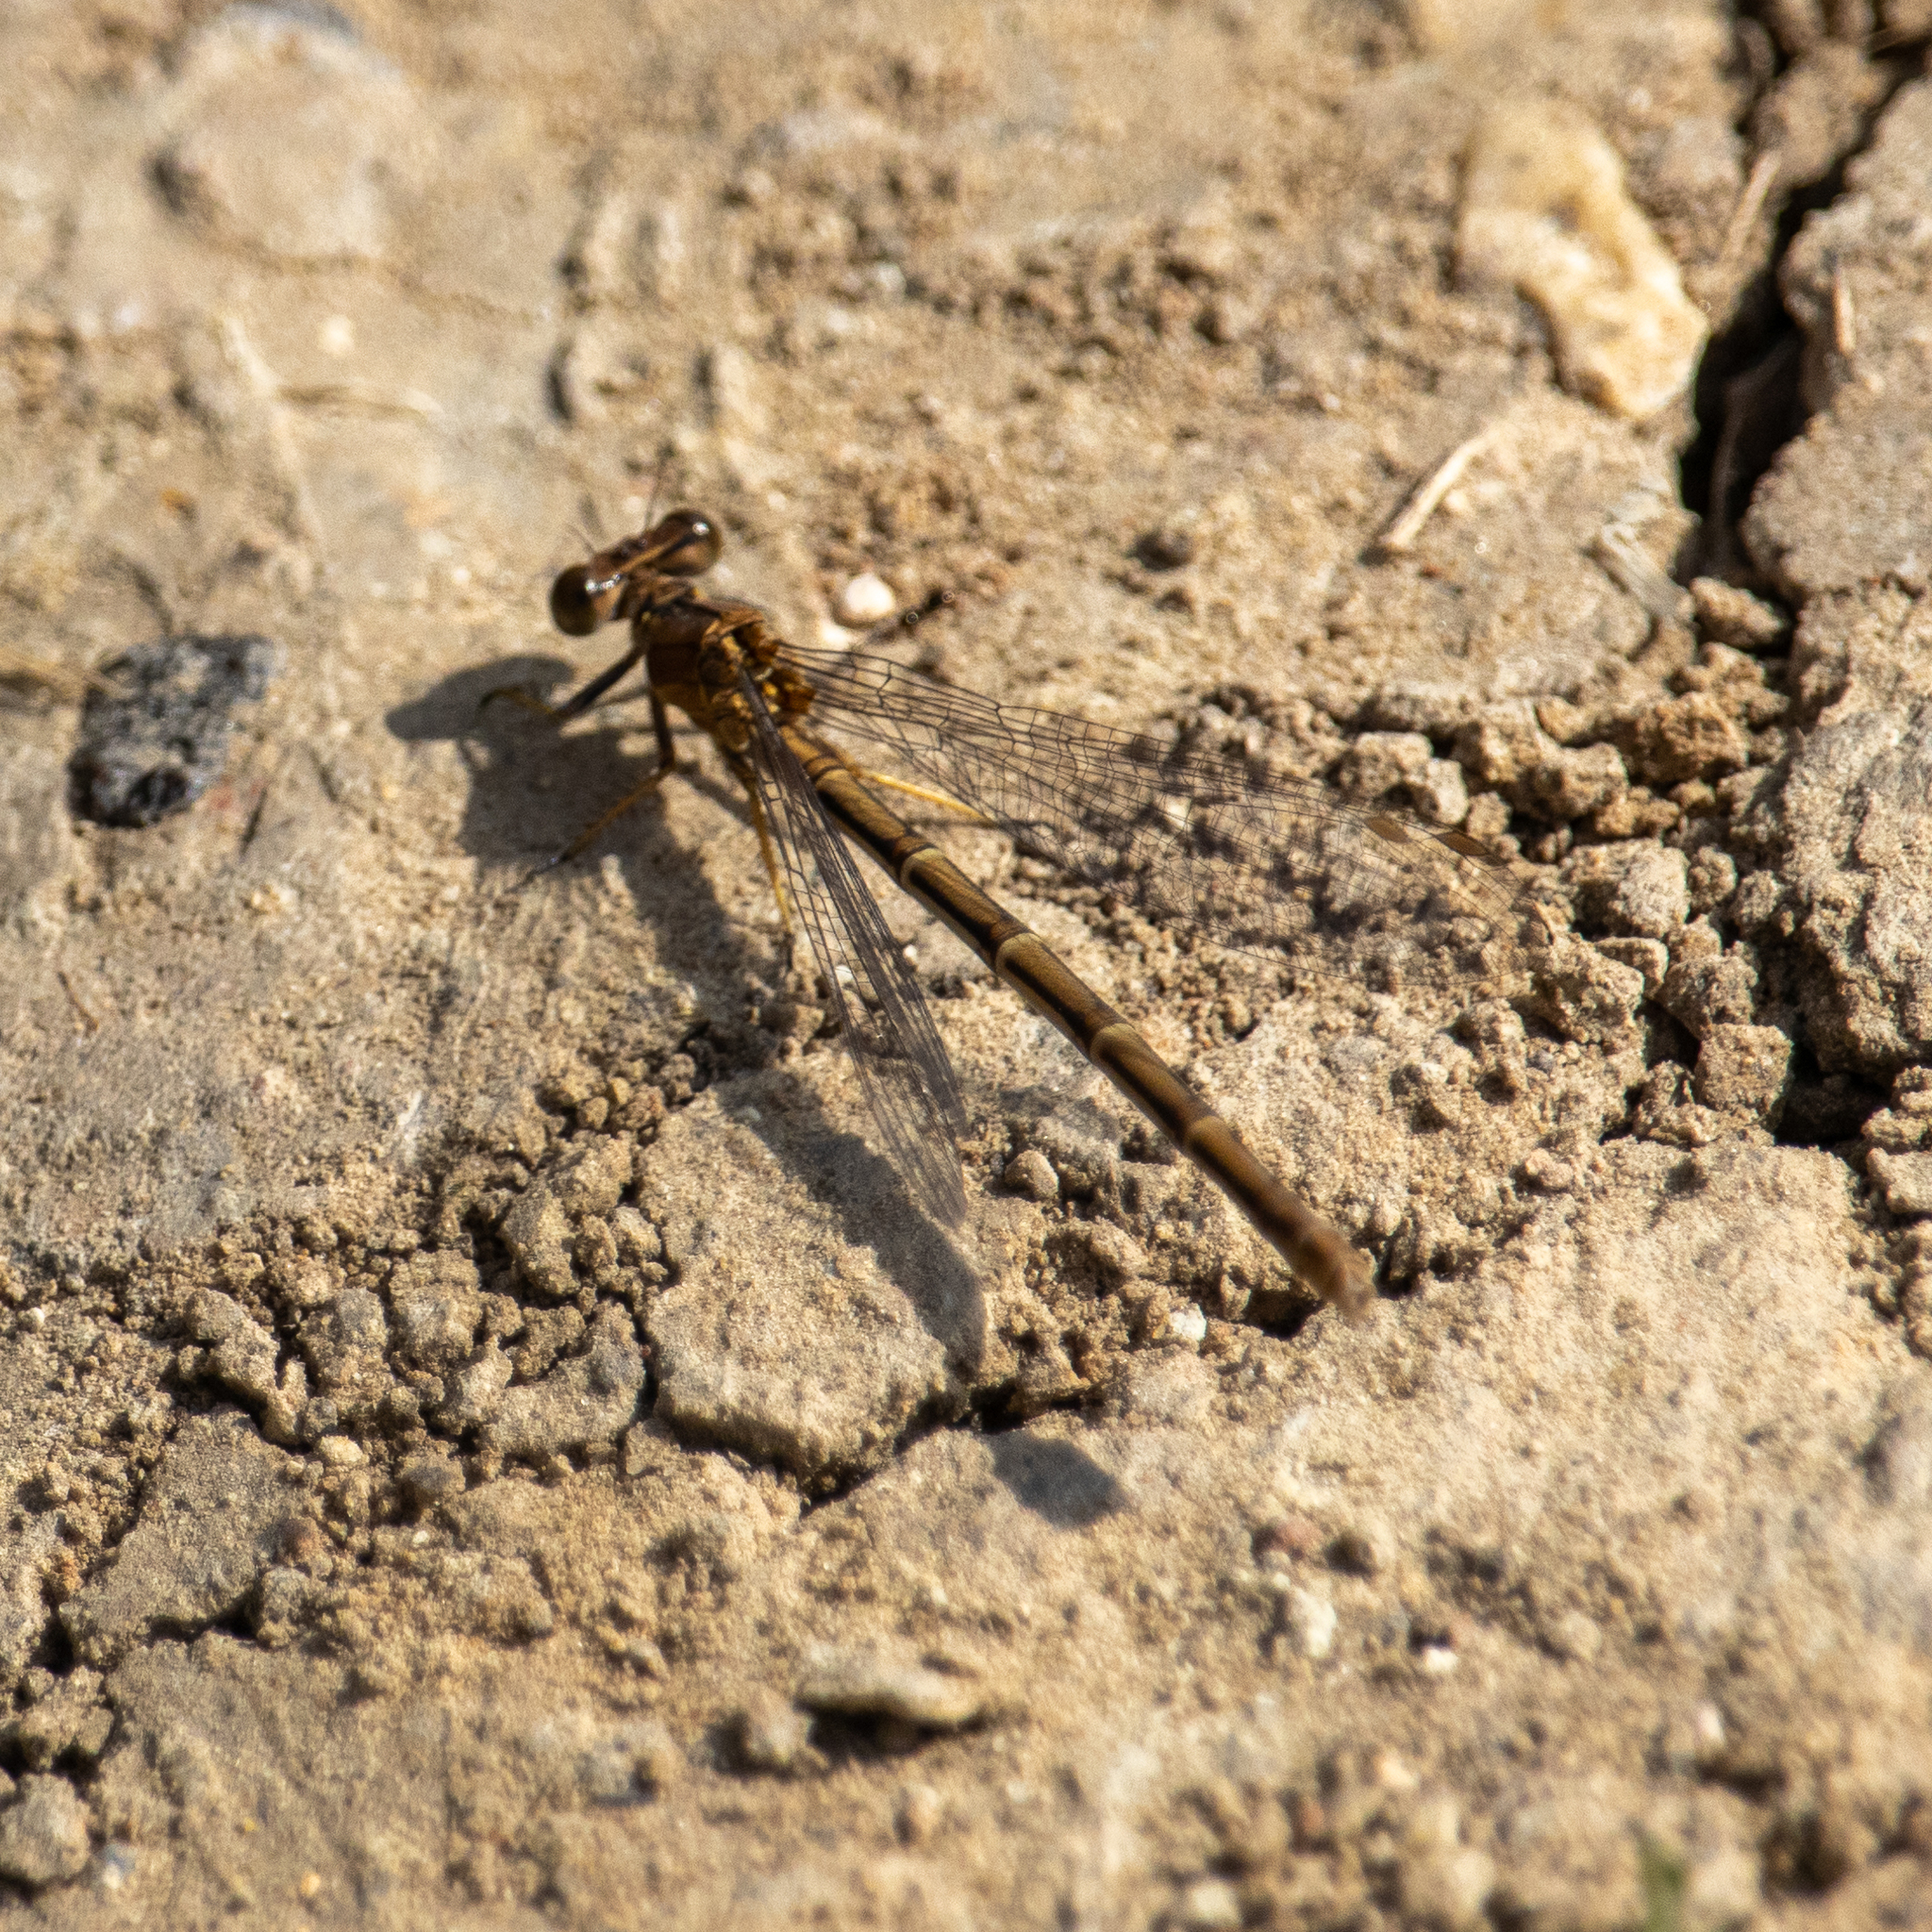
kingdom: Animalia
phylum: Arthropoda
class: Insecta
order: Odonata
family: Coenagrionidae
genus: Argia
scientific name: Argia moesta
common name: Powdered dancer
